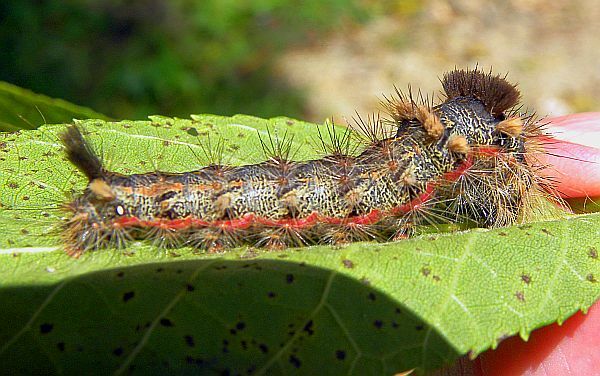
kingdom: Animalia
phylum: Arthropoda
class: Insecta
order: Lepidoptera
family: Noctuidae
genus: Acronicta
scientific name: Acronicta impleta
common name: Powdered dagger
